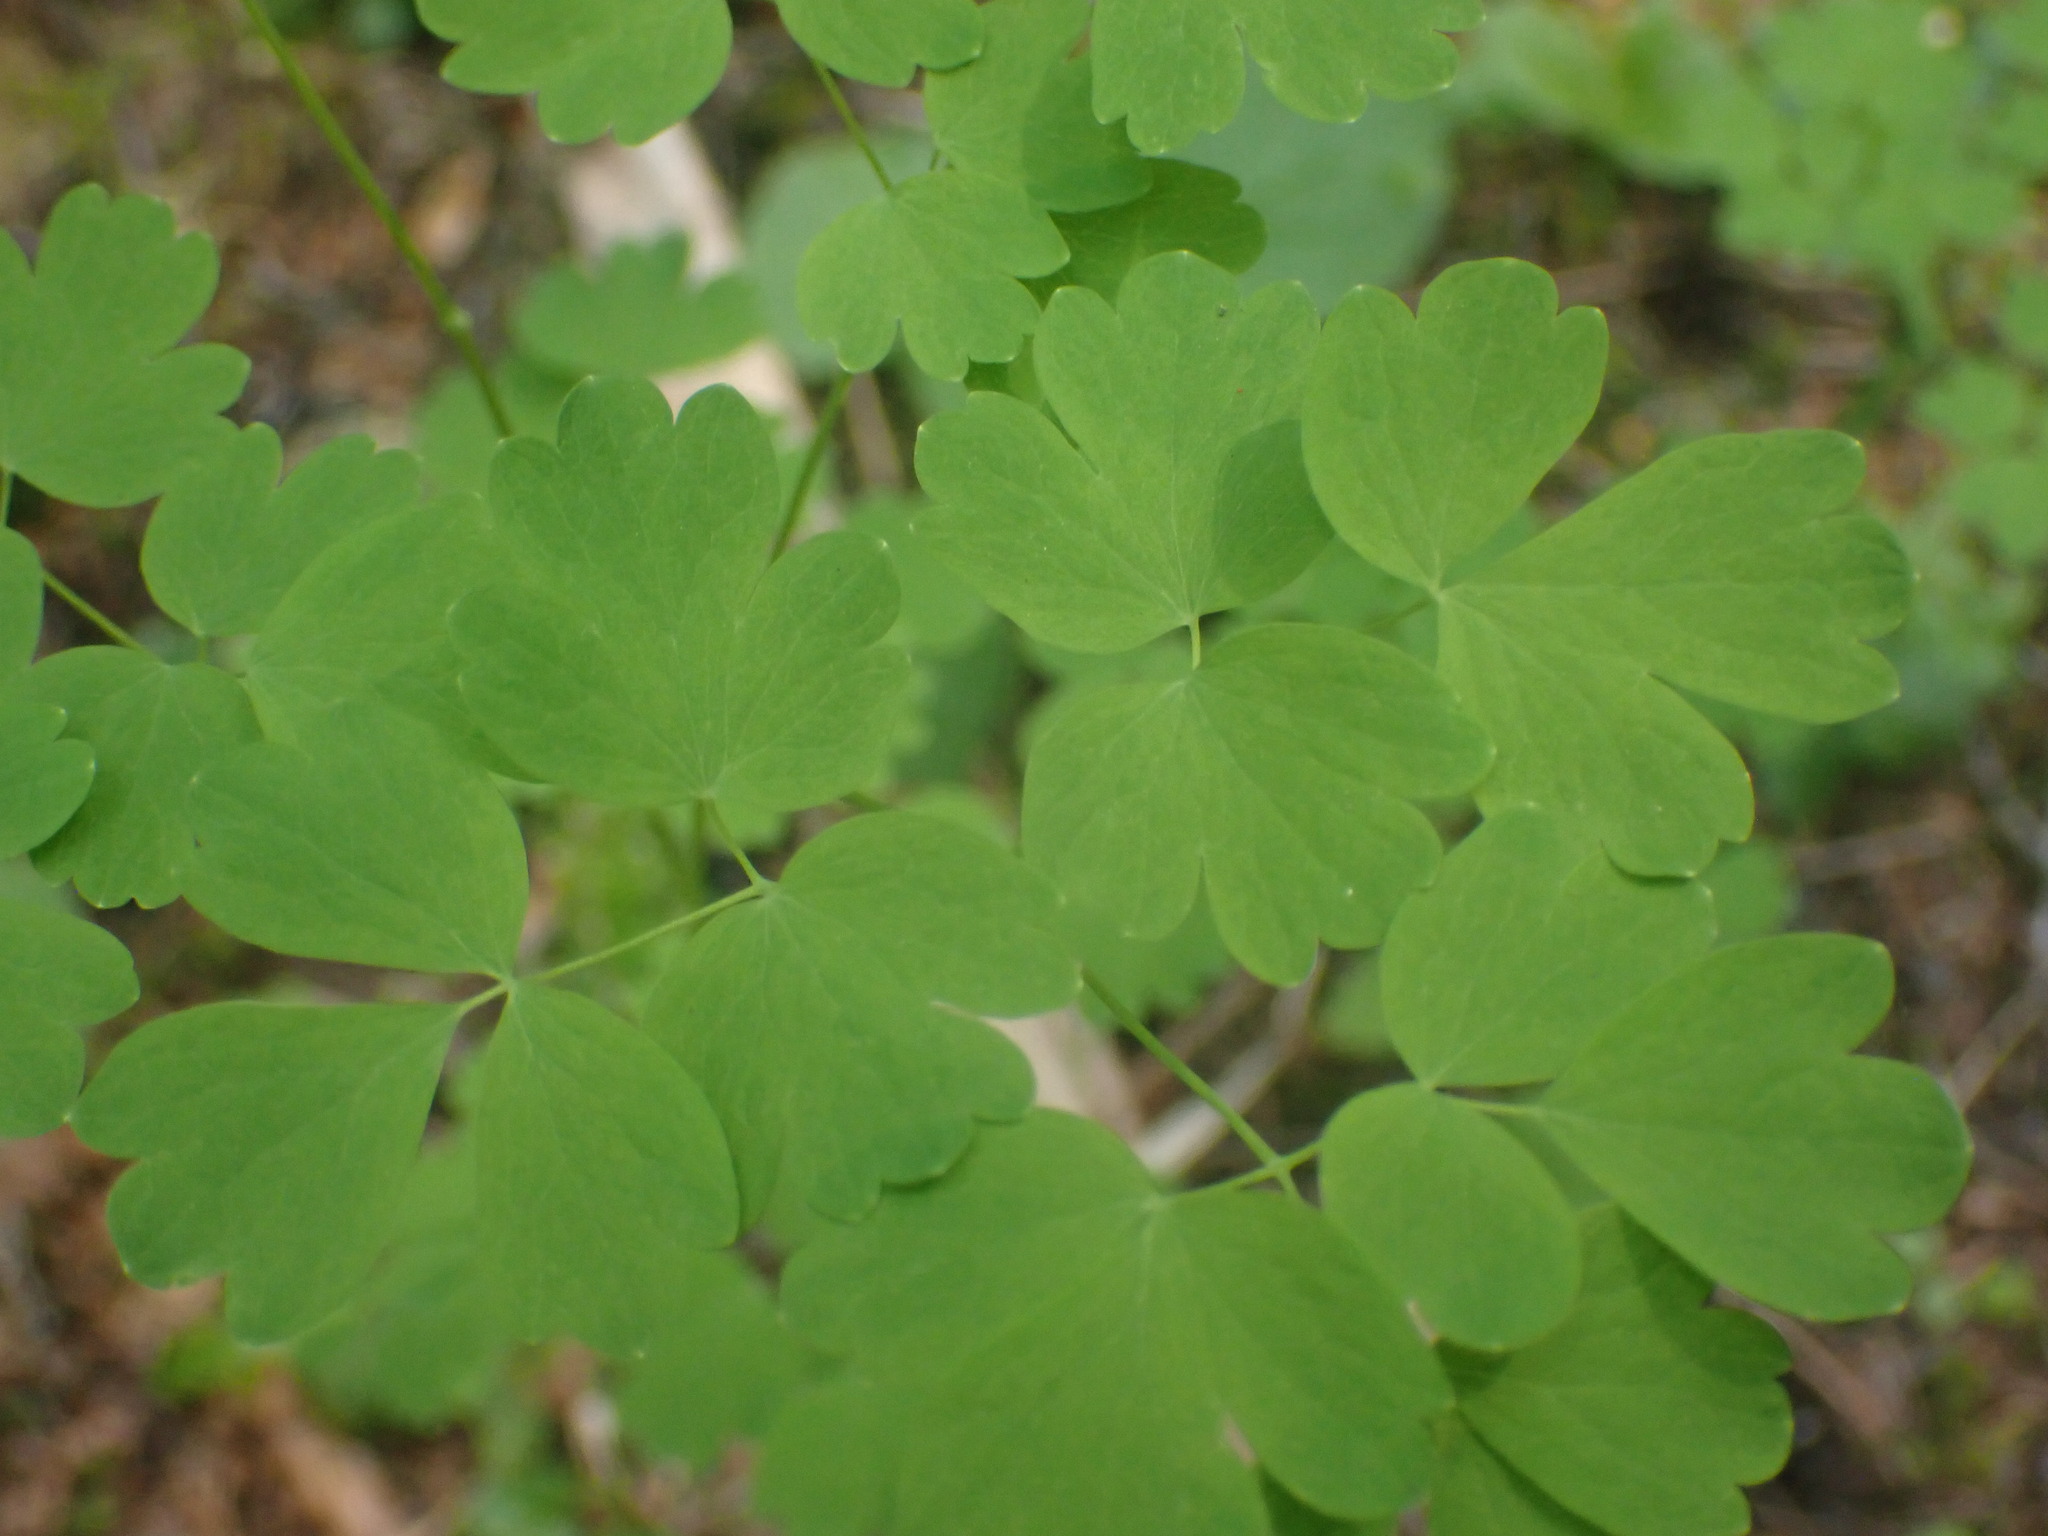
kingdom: Plantae
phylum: Tracheophyta
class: Magnoliopsida
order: Ranunculales
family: Ranunculaceae
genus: Thalictrum
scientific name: Thalictrum occidentale
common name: Western meadow-rue
